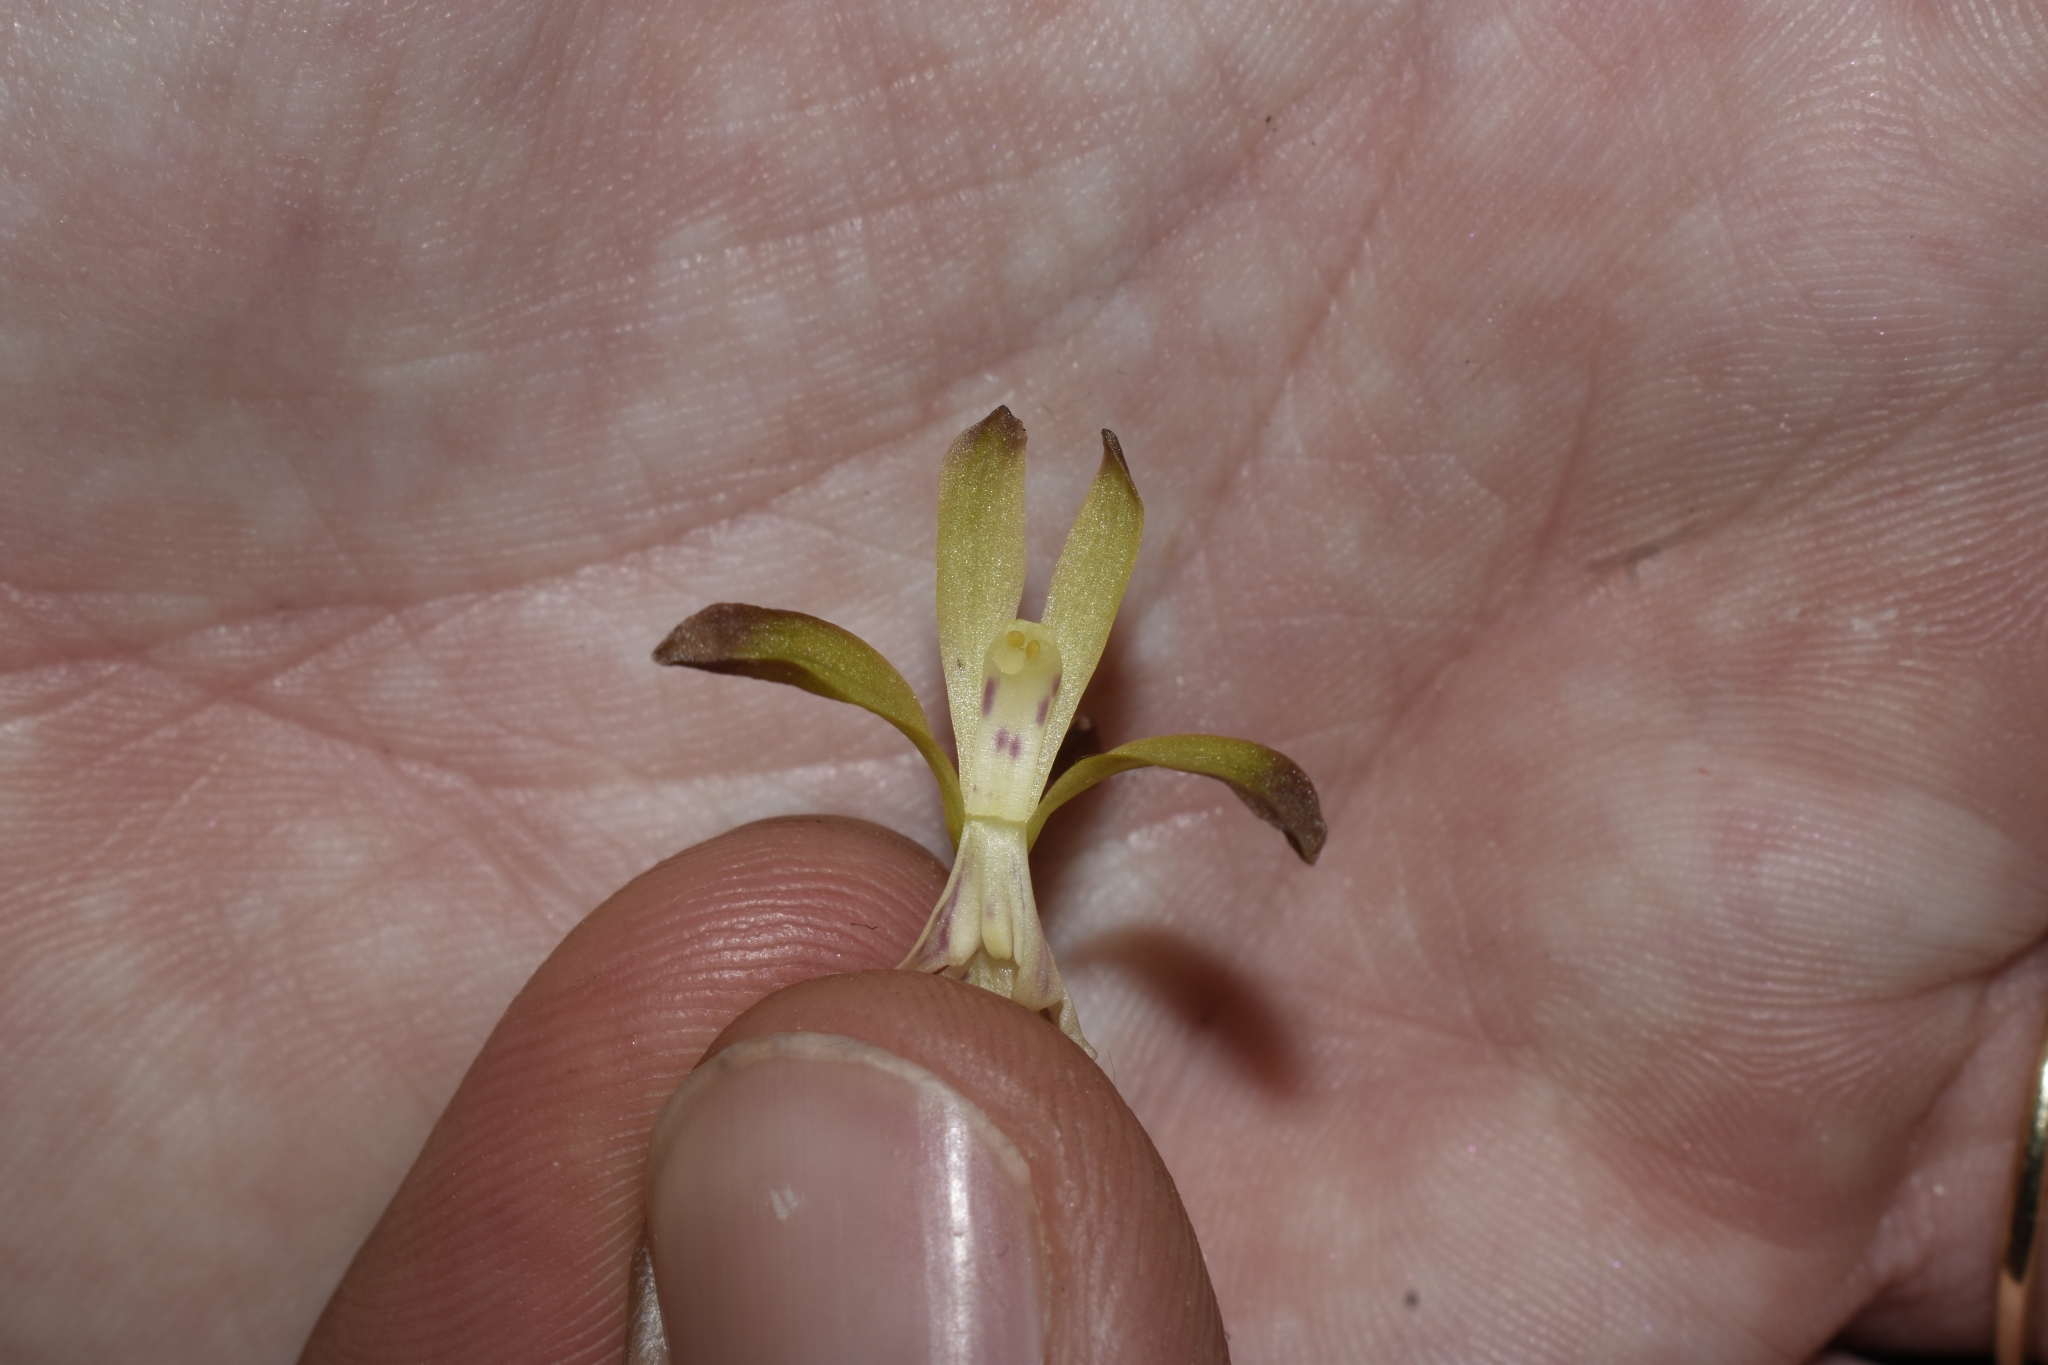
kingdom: Plantae
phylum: Tracheophyta
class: Liliopsida
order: Asparagales
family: Orchidaceae
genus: Aplectrum
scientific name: Aplectrum hyemale
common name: Adam-and-eve
